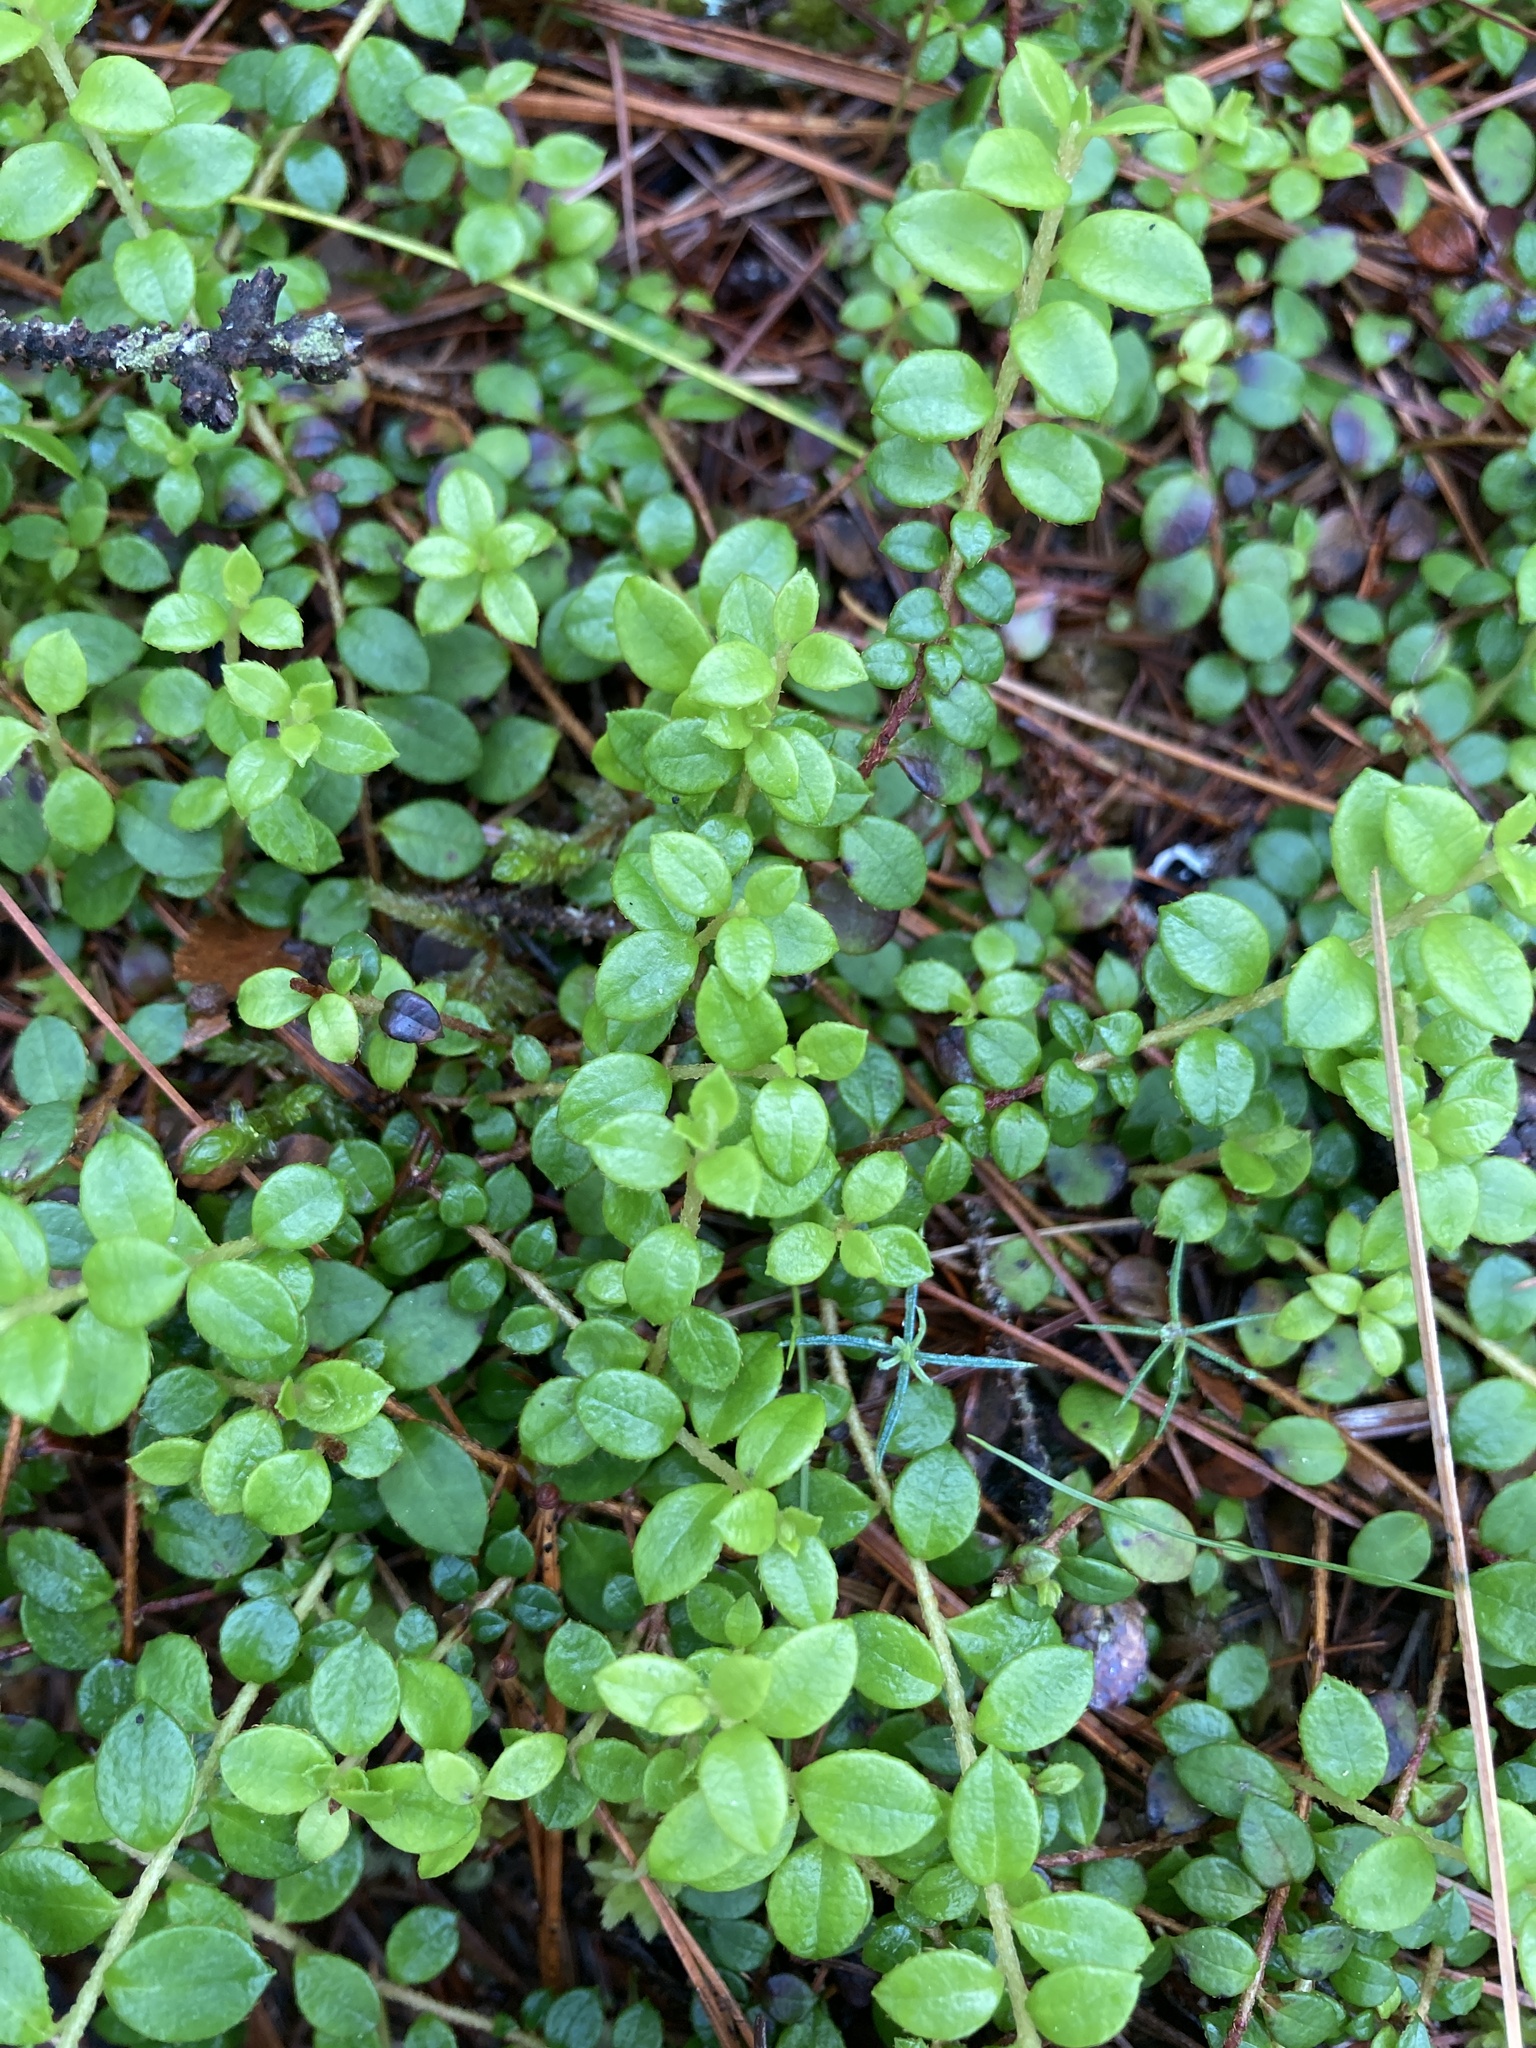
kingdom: Plantae
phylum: Tracheophyta
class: Magnoliopsida
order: Ericales
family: Ericaceae
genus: Gaultheria
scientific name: Gaultheria hispidula
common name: Cancer wintergreen
